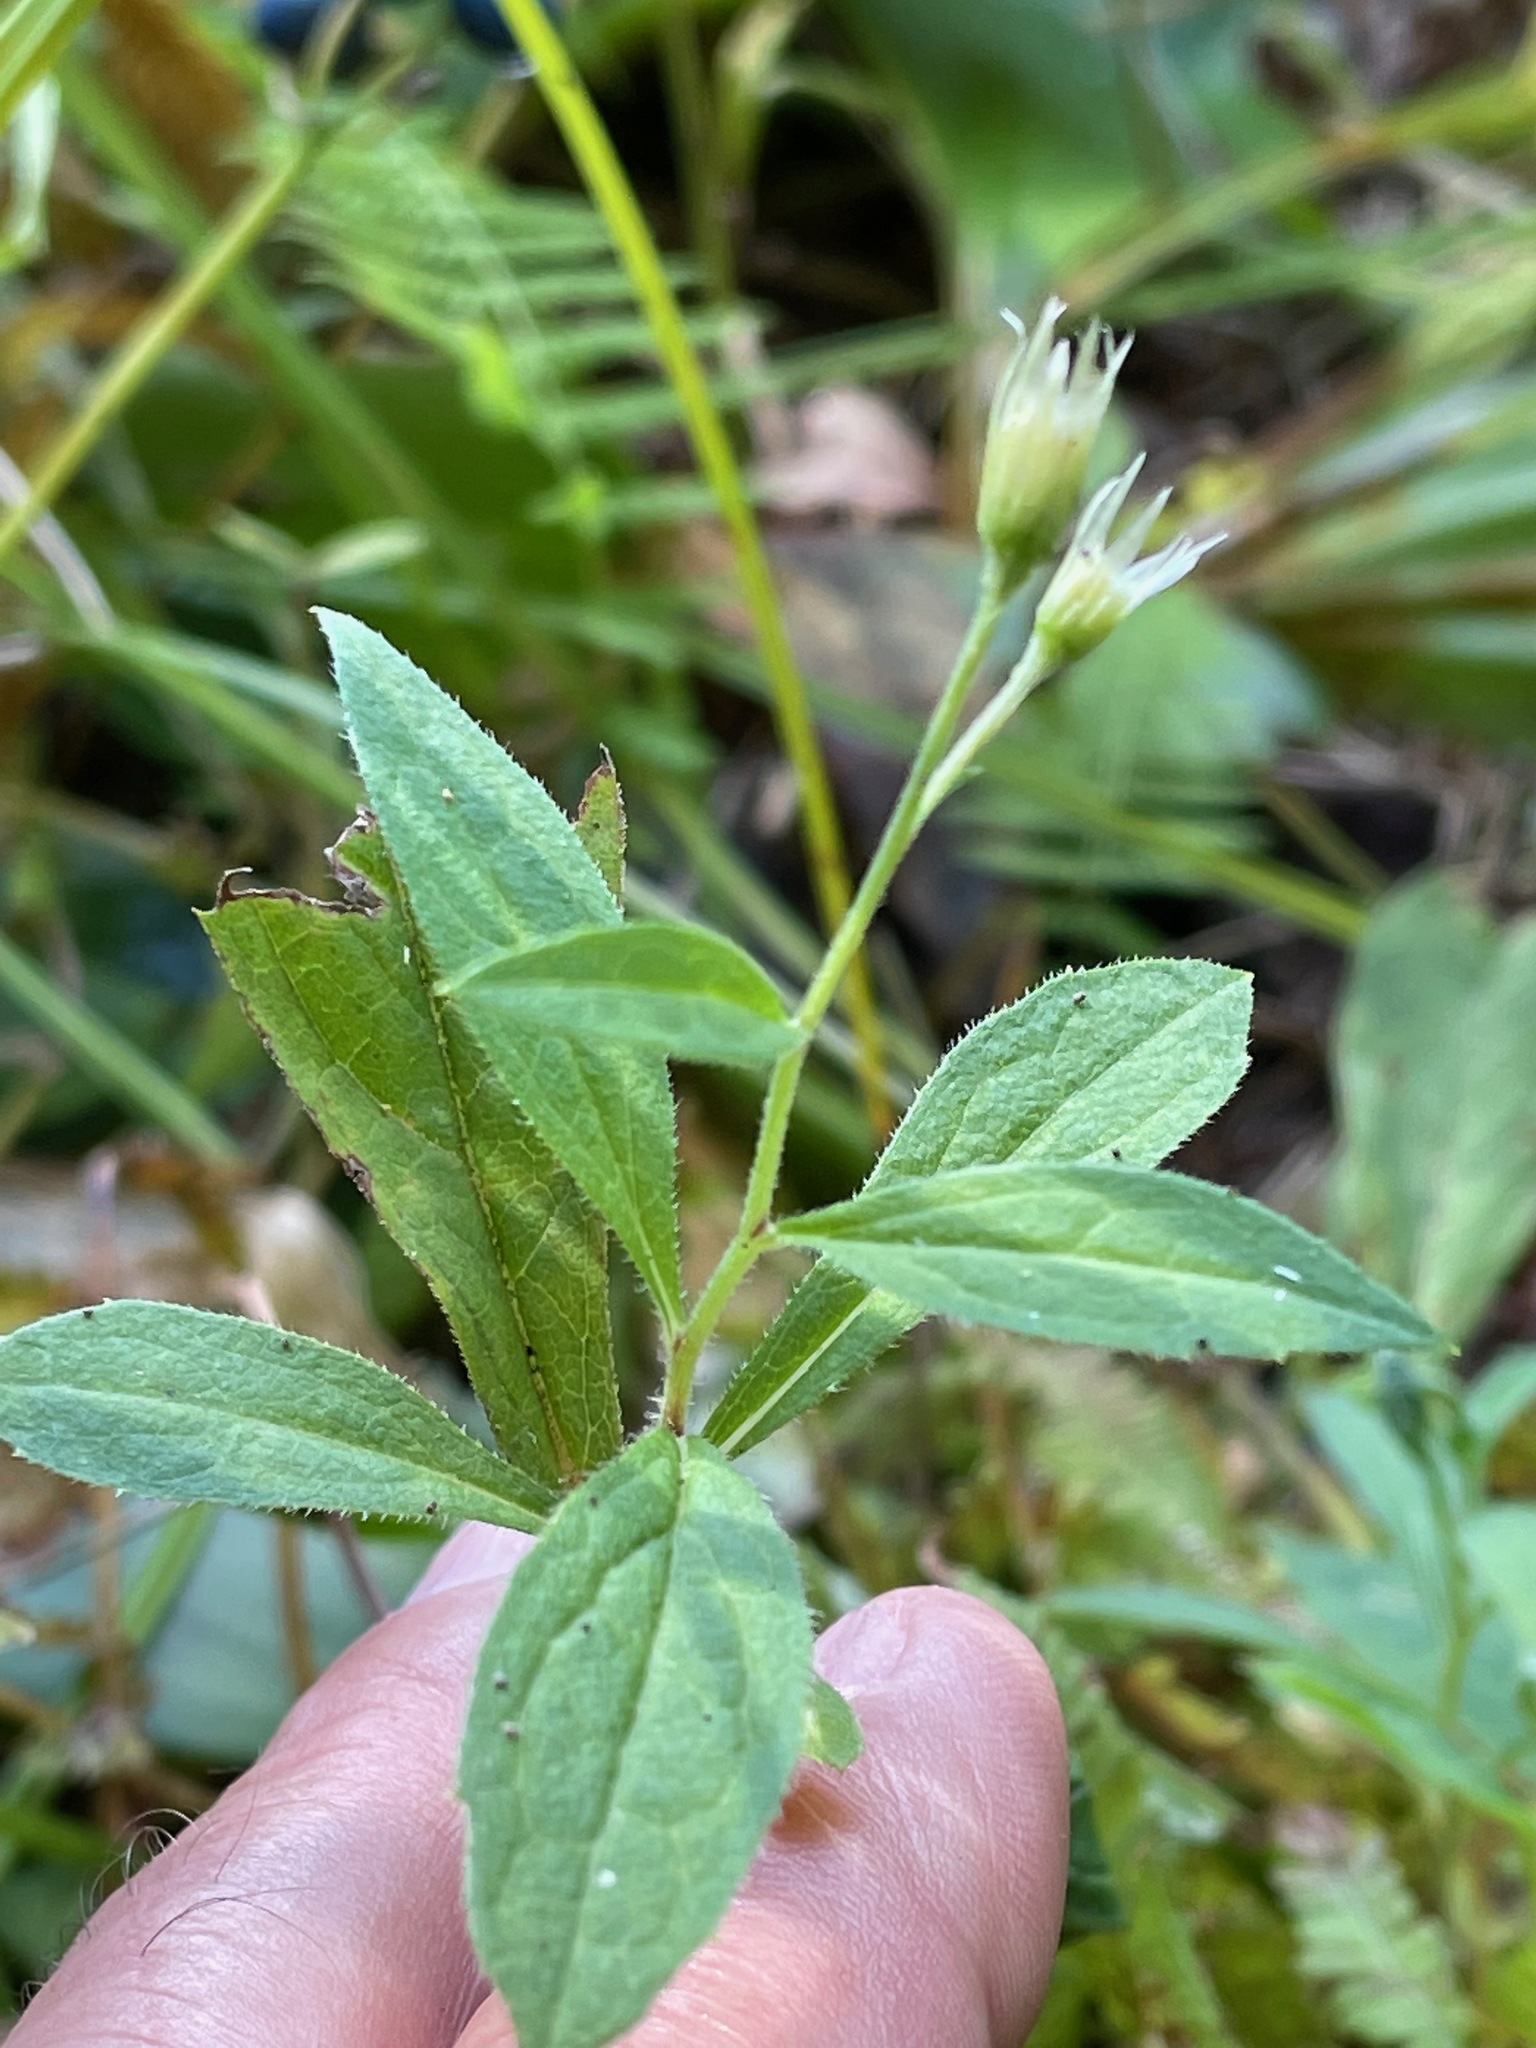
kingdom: Plantae
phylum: Tracheophyta
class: Magnoliopsida
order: Asterales
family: Asteraceae
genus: Oclemena
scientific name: Oclemena acuminata
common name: Mountain aster
